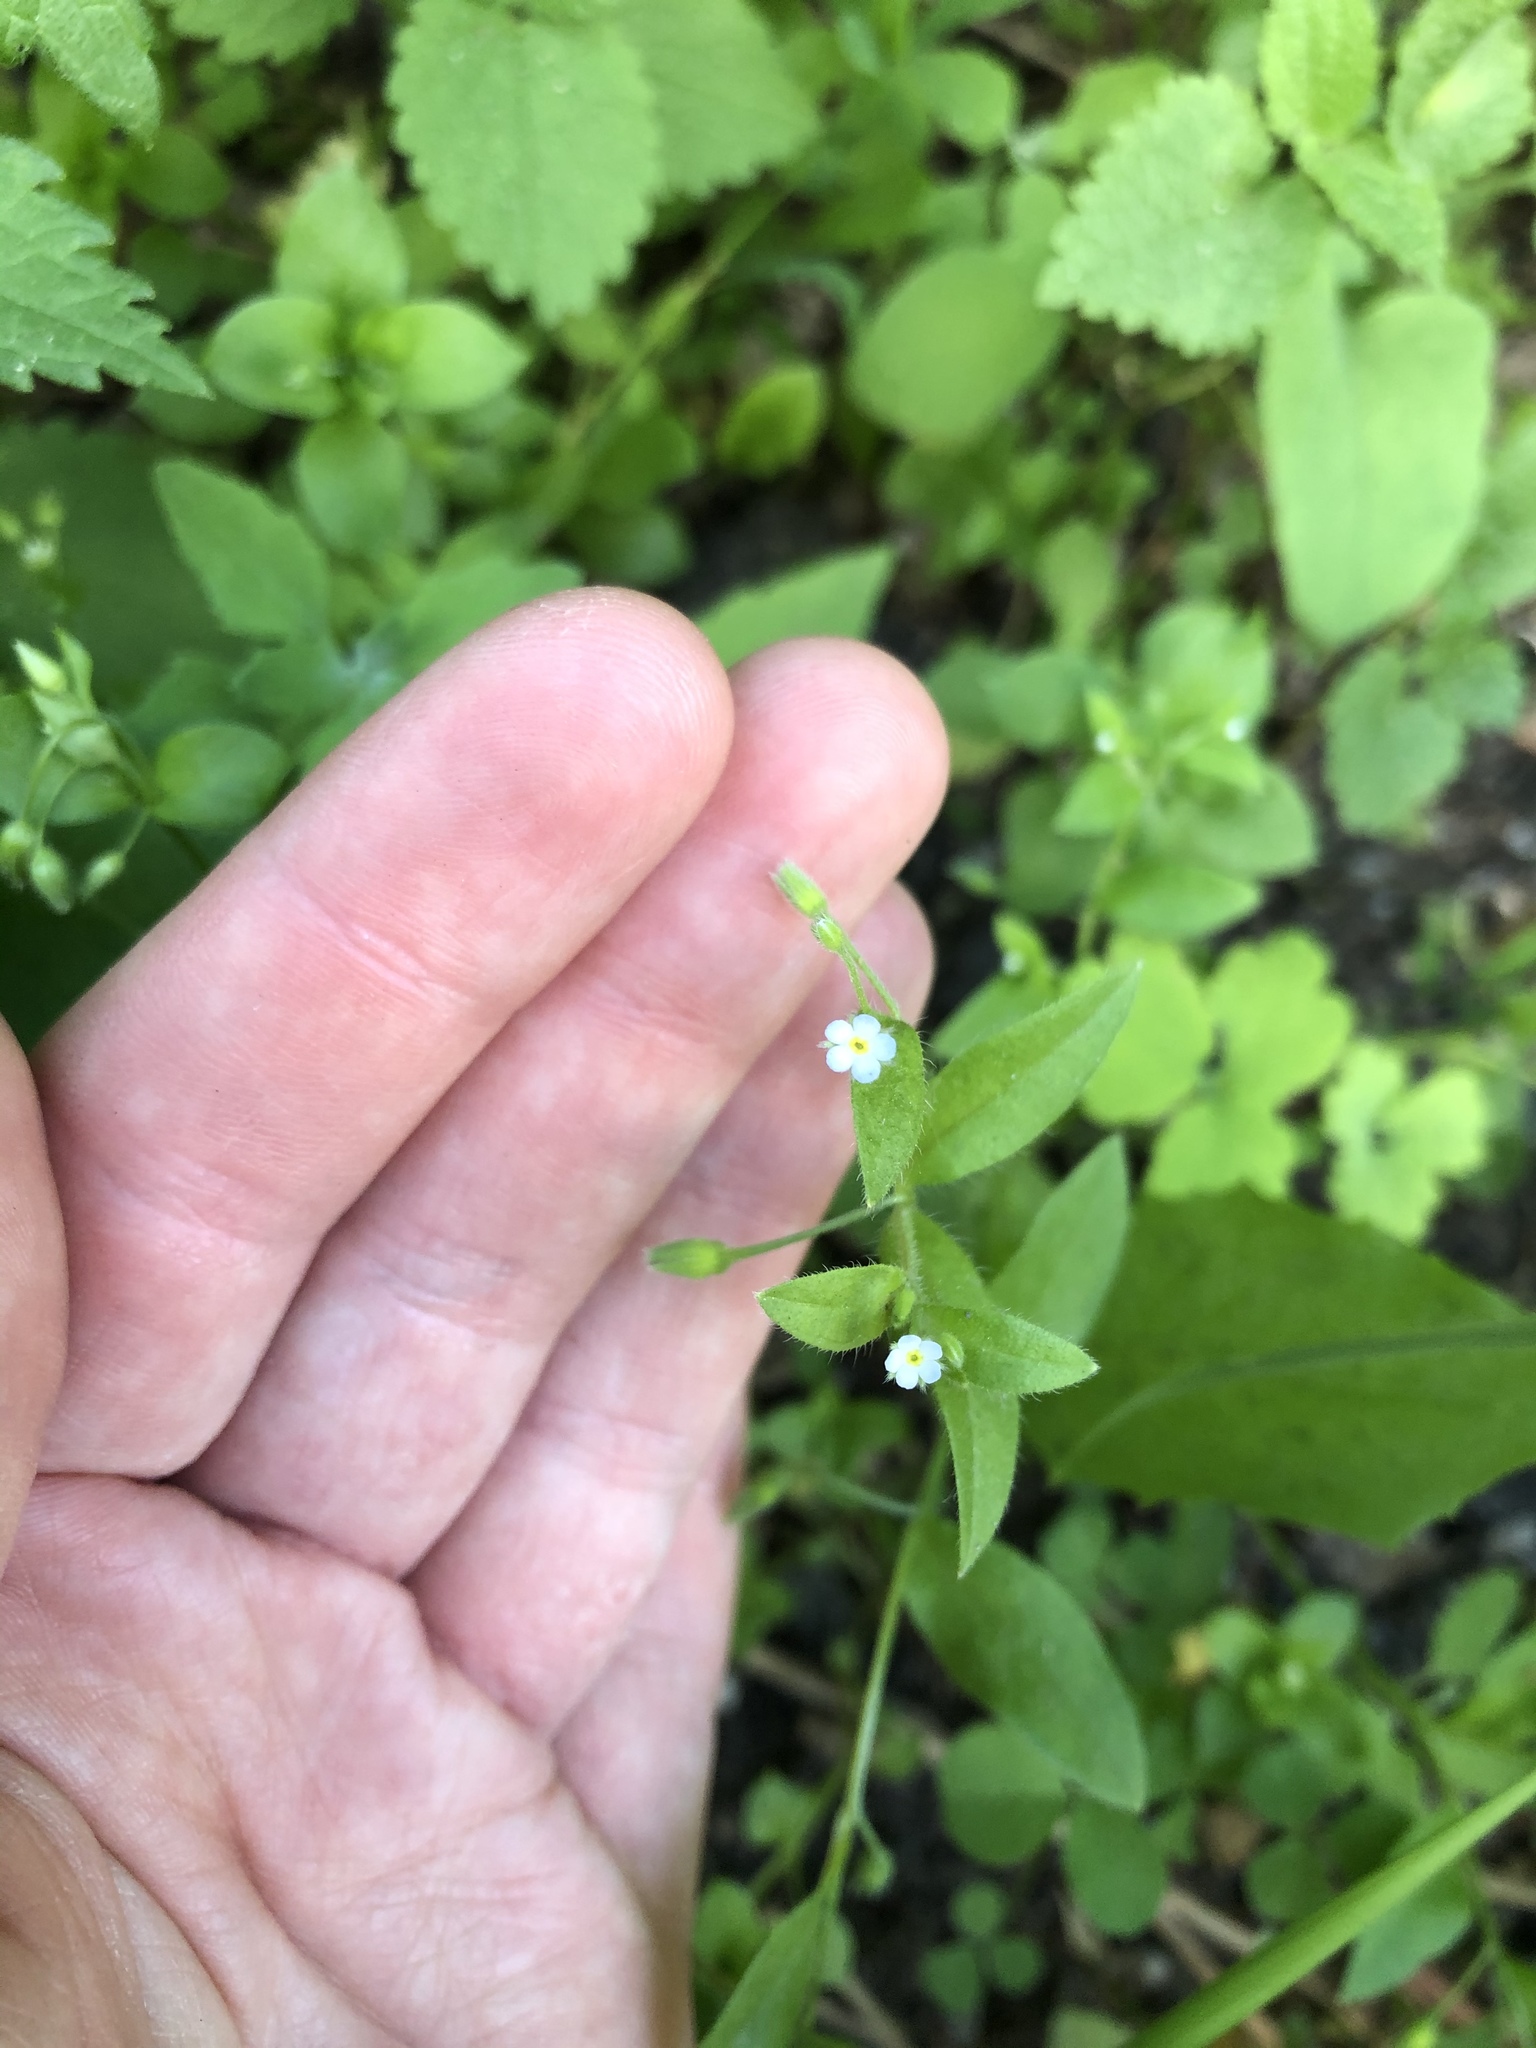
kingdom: Plantae
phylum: Tracheophyta
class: Magnoliopsida
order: Boraginales
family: Boraginaceae
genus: Myosotis
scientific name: Myosotis sparsiflora
